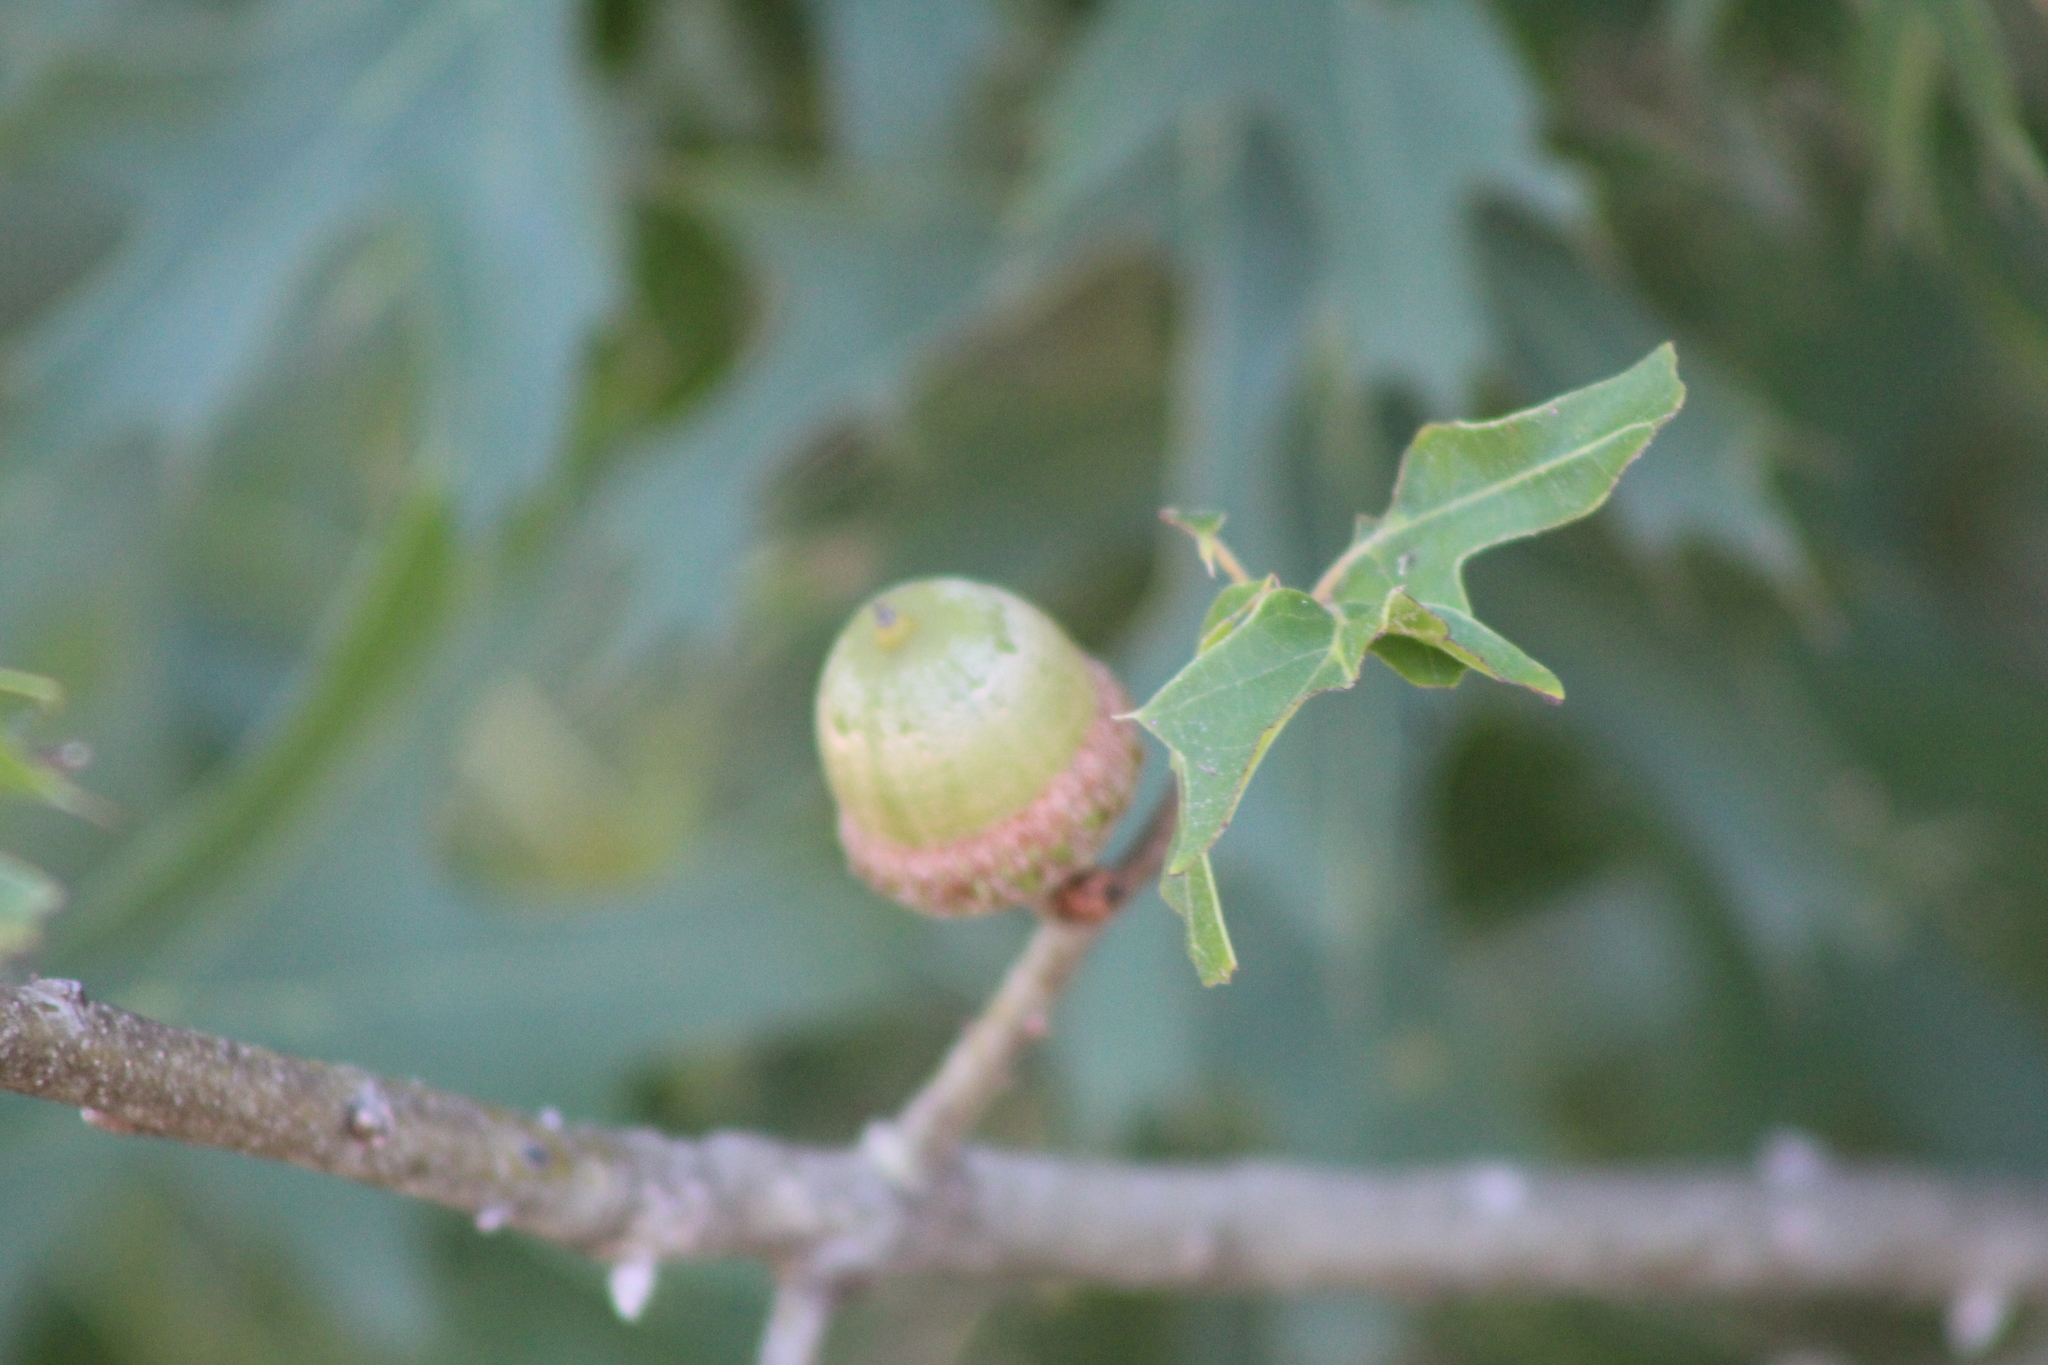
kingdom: Plantae
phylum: Tracheophyta
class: Magnoliopsida
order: Fagales
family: Fagaceae
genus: Quercus
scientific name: Quercus
